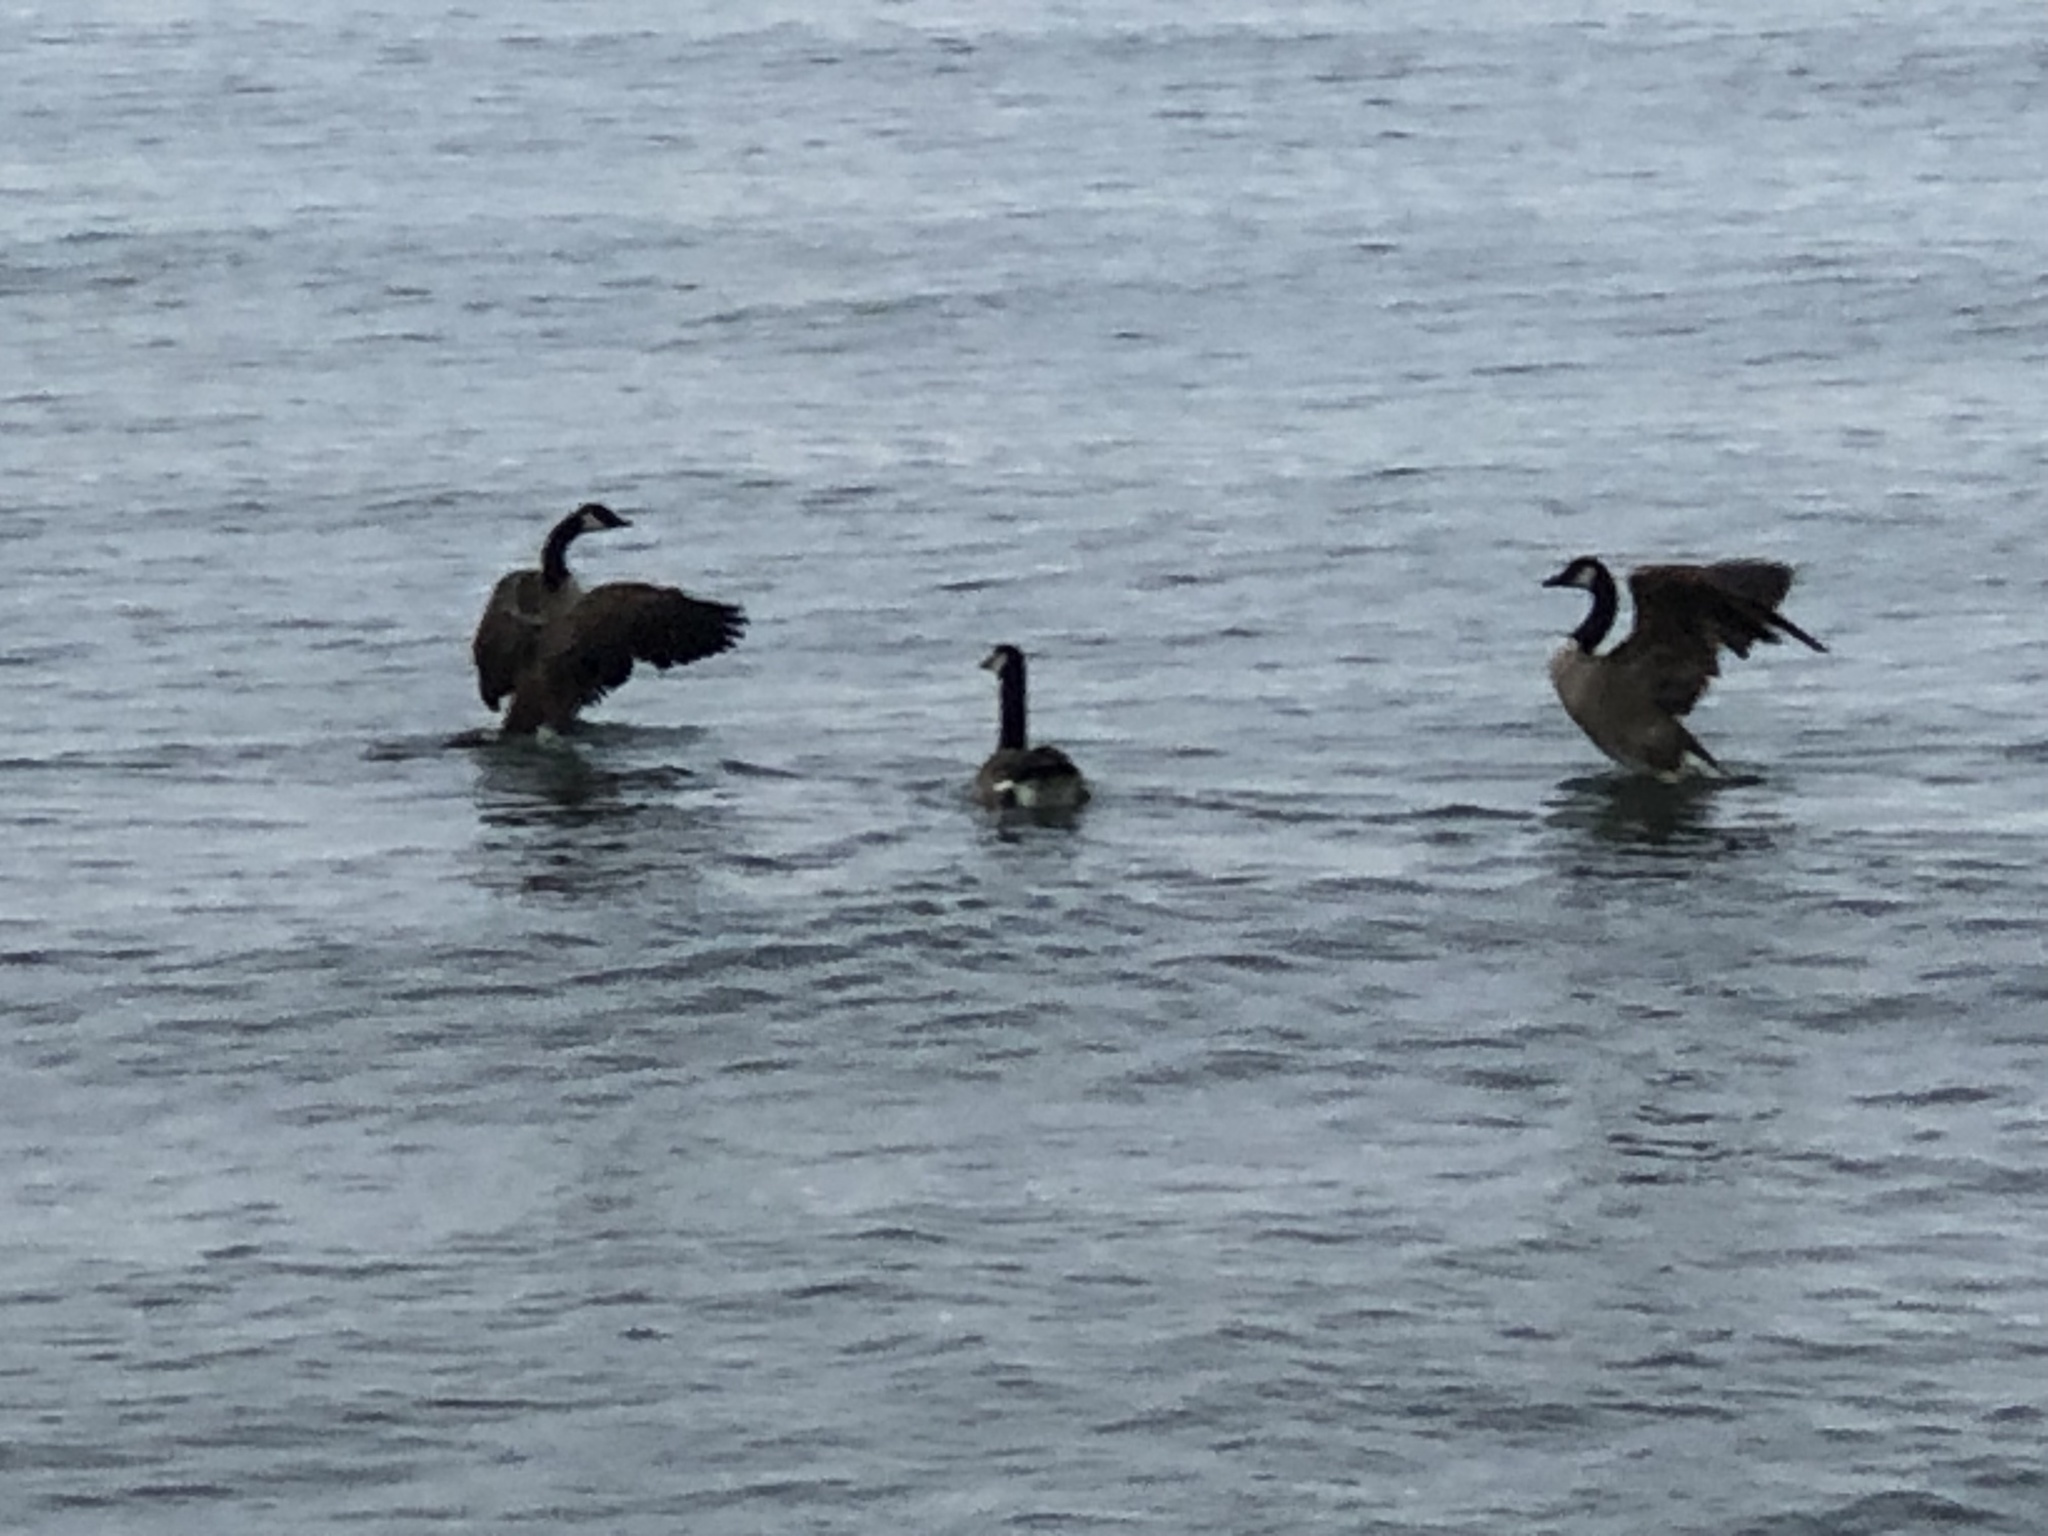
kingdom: Animalia
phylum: Chordata
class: Aves
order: Anseriformes
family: Anatidae
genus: Branta
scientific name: Branta canadensis
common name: Canada goose
